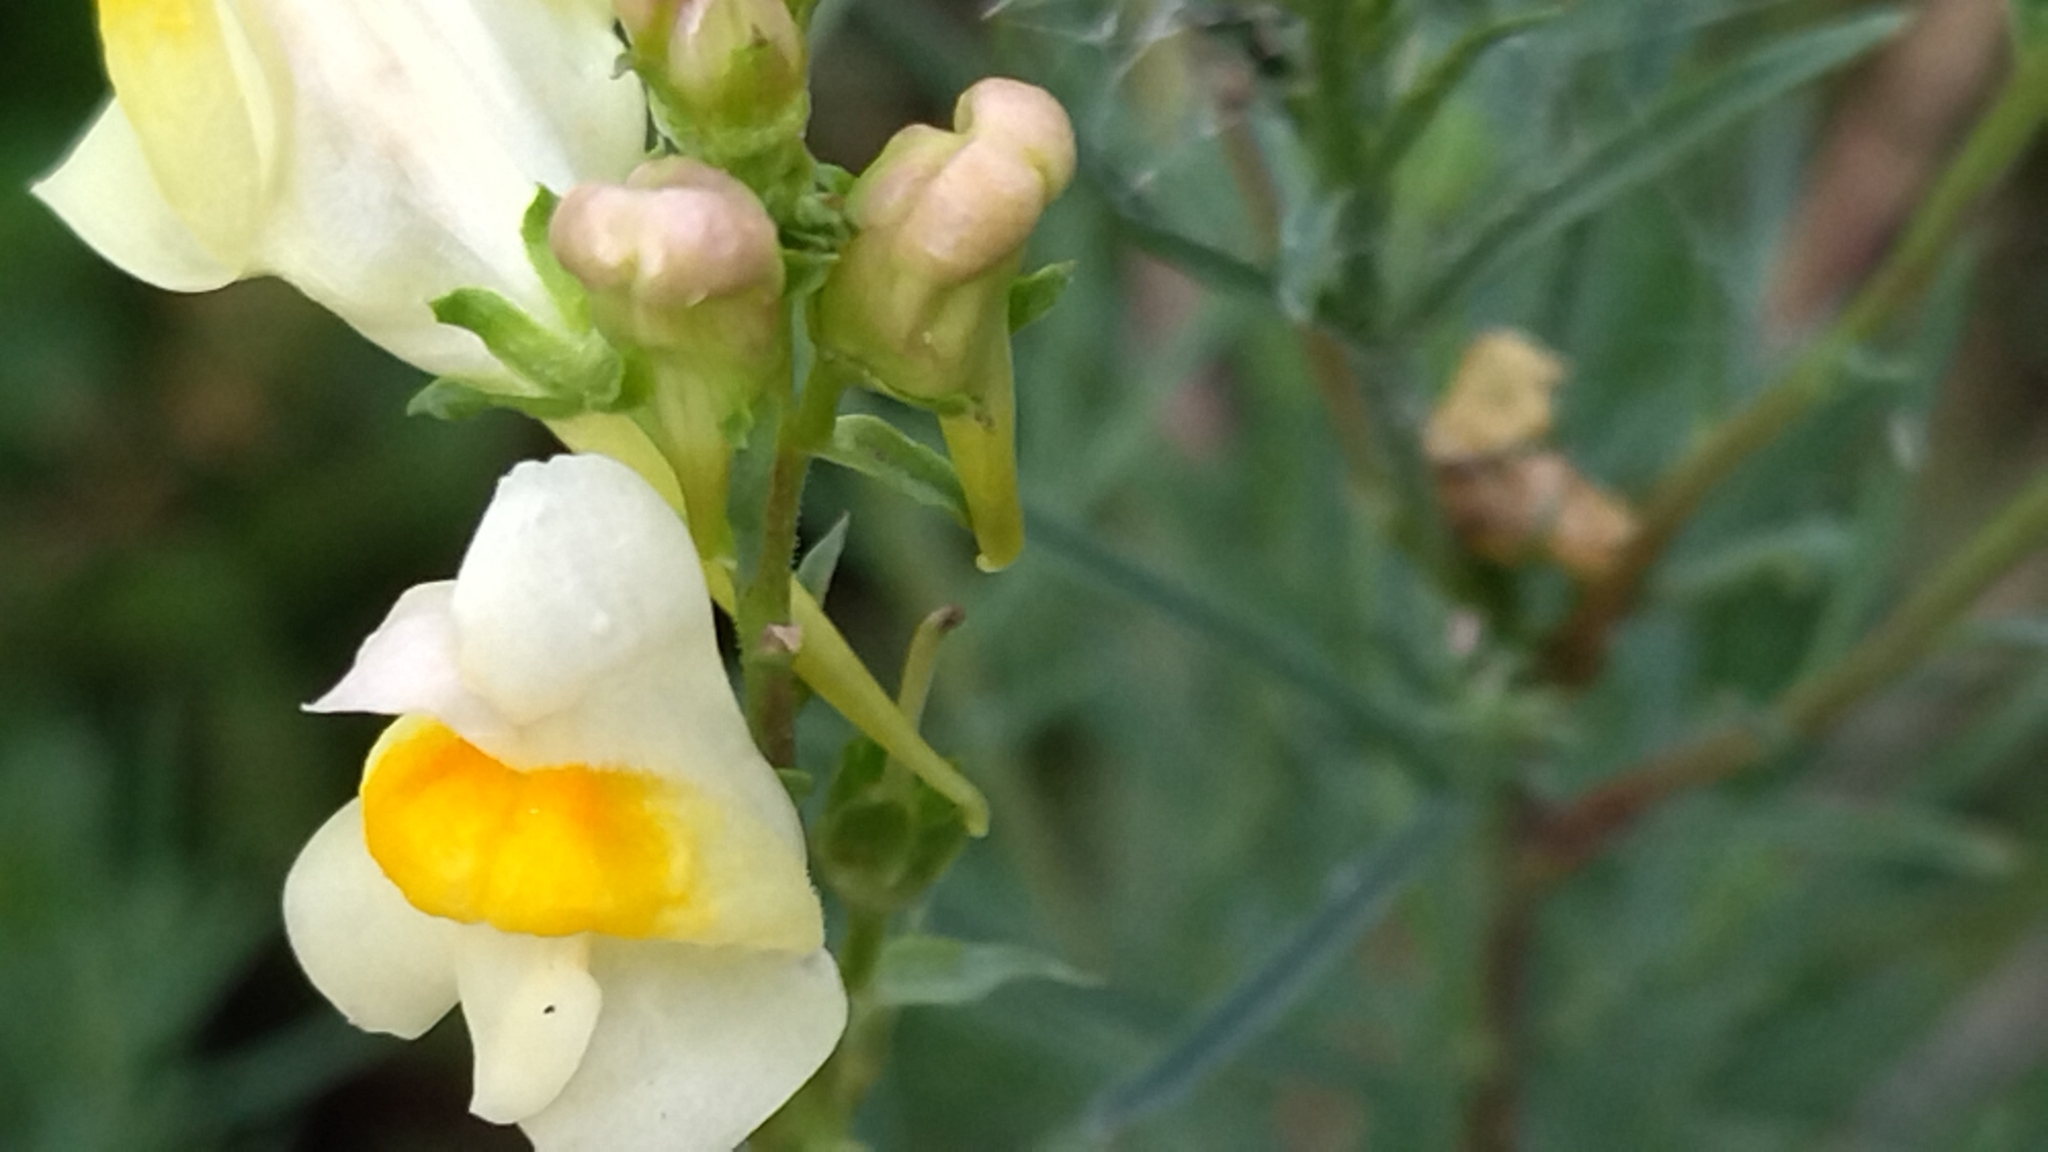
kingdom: Plantae
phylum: Tracheophyta
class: Magnoliopsida
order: Lamiales
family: Plantaginaceae
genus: Linaria
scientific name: Linaria vulgaris
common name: Butter and eggs
